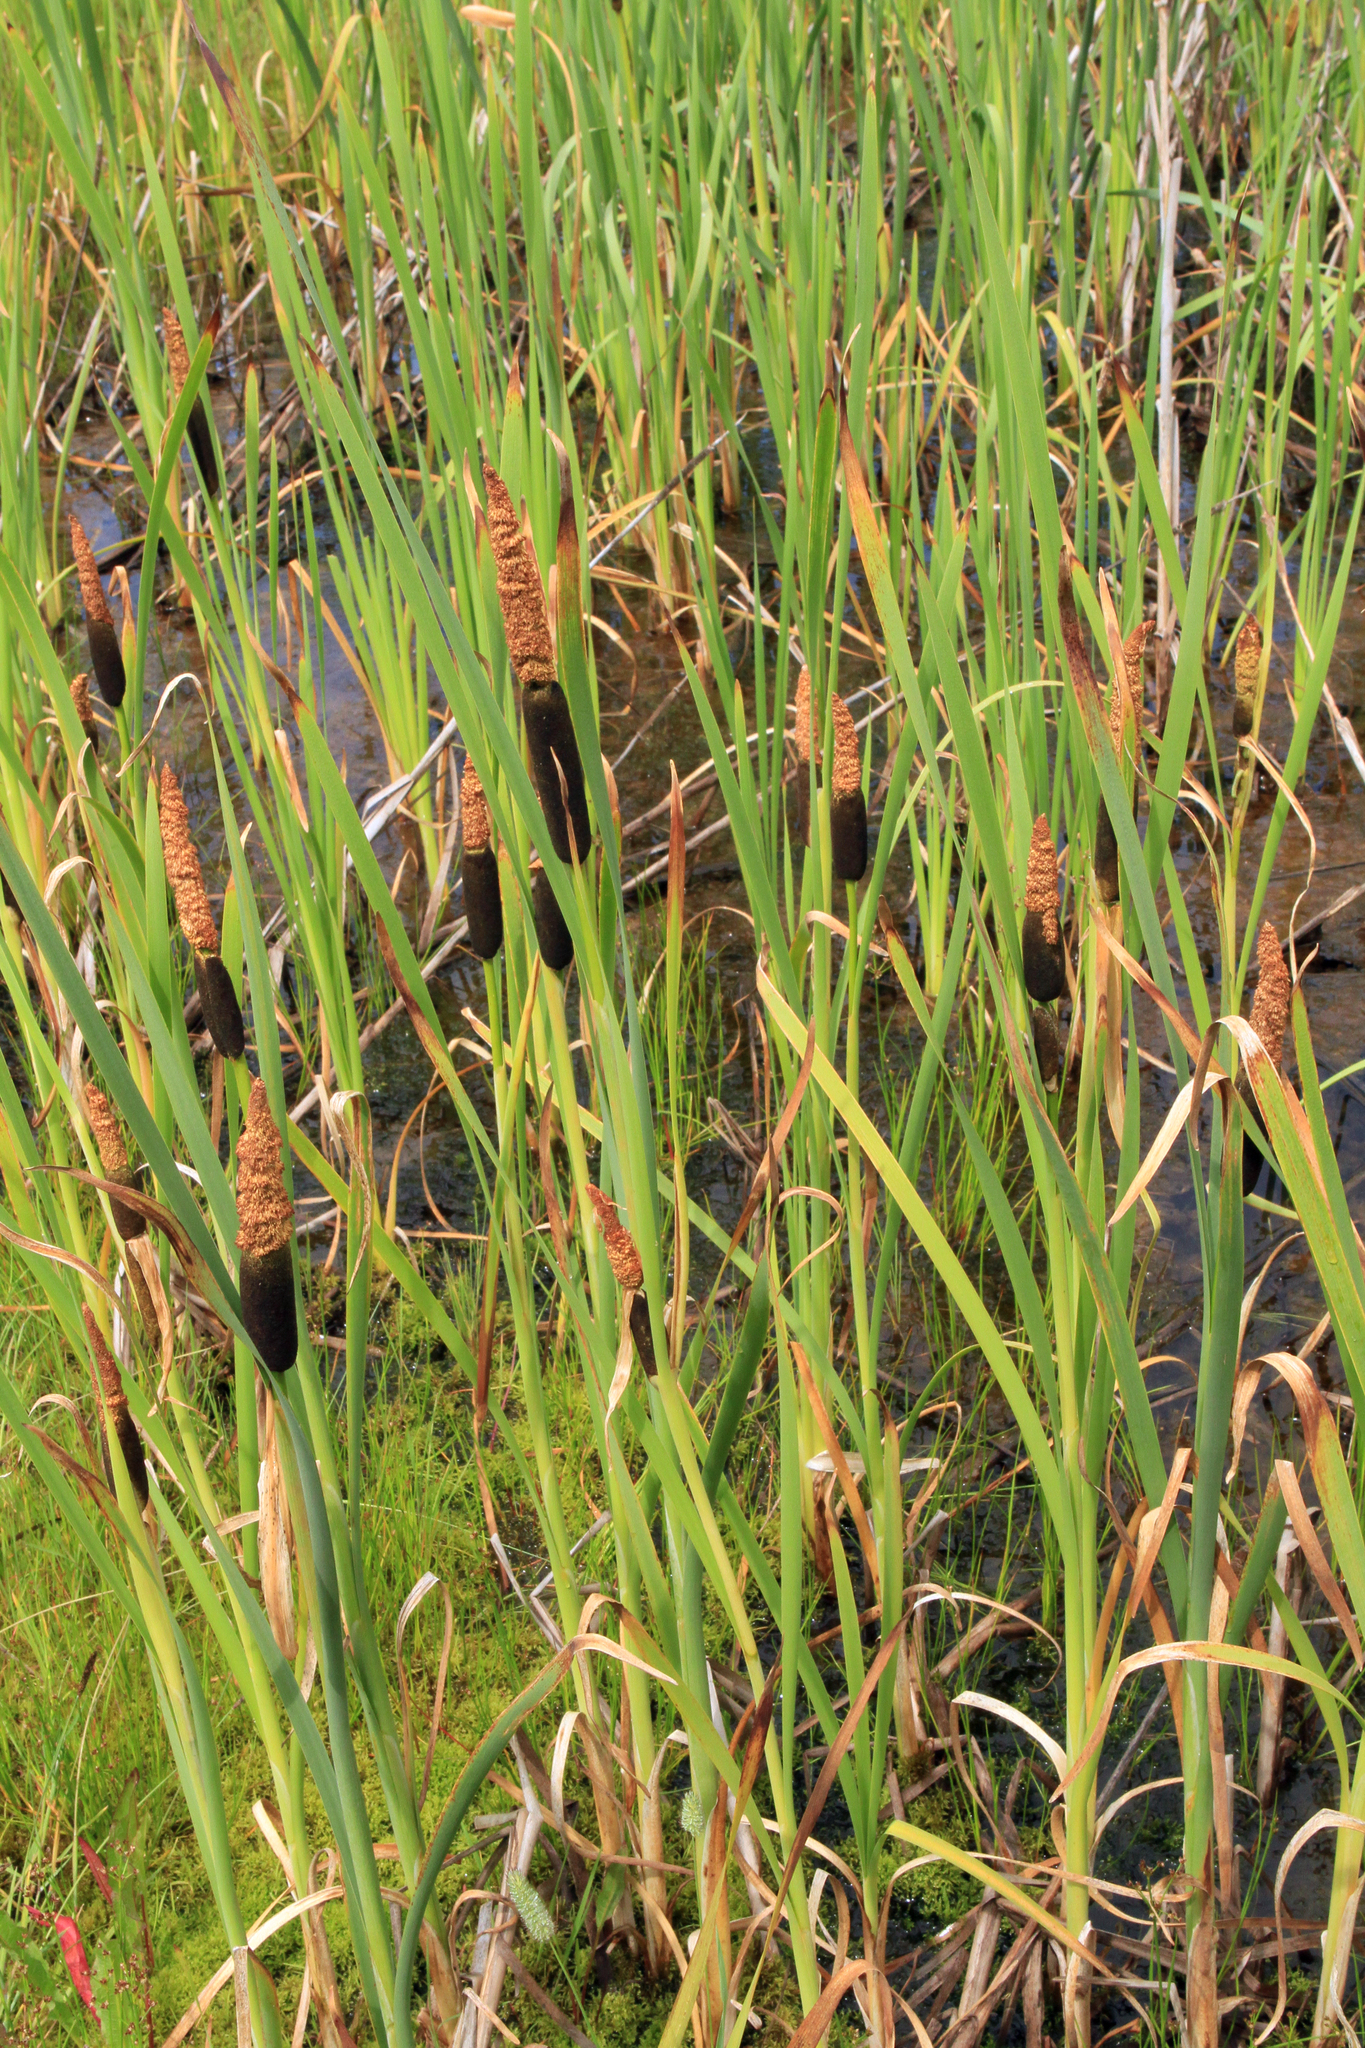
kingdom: Plantae
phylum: Tracheophyta
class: Liliopsida
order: Poales
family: Typhaceae
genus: Typha
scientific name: Typha latifolia
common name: Broadleaf cattail
